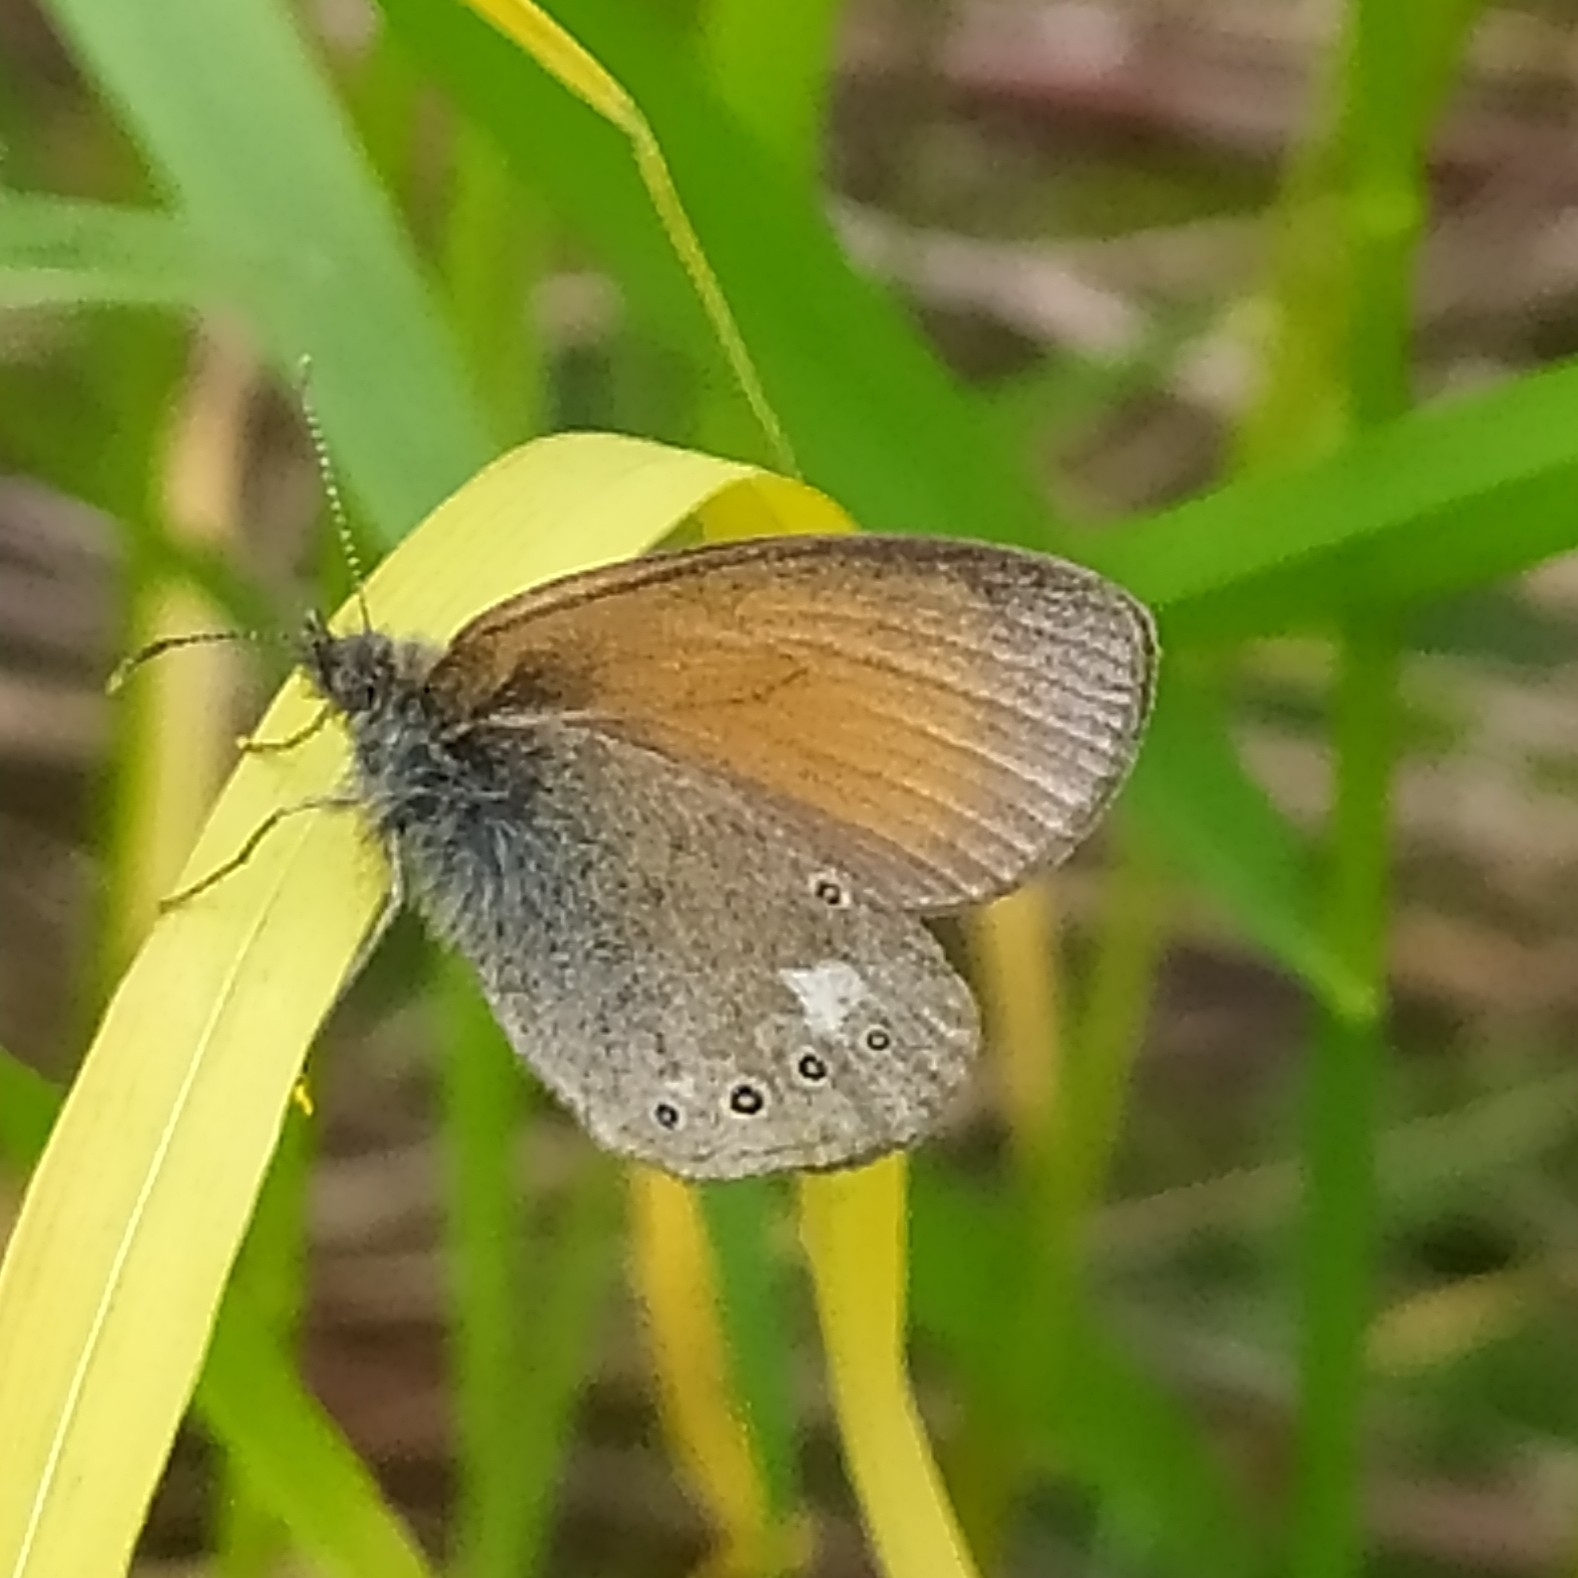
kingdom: Animalia
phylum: Arthropoda
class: Insecta
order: Lepidoptera
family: Nymphalidae
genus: Coenonympha
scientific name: Coenonympha iphis
